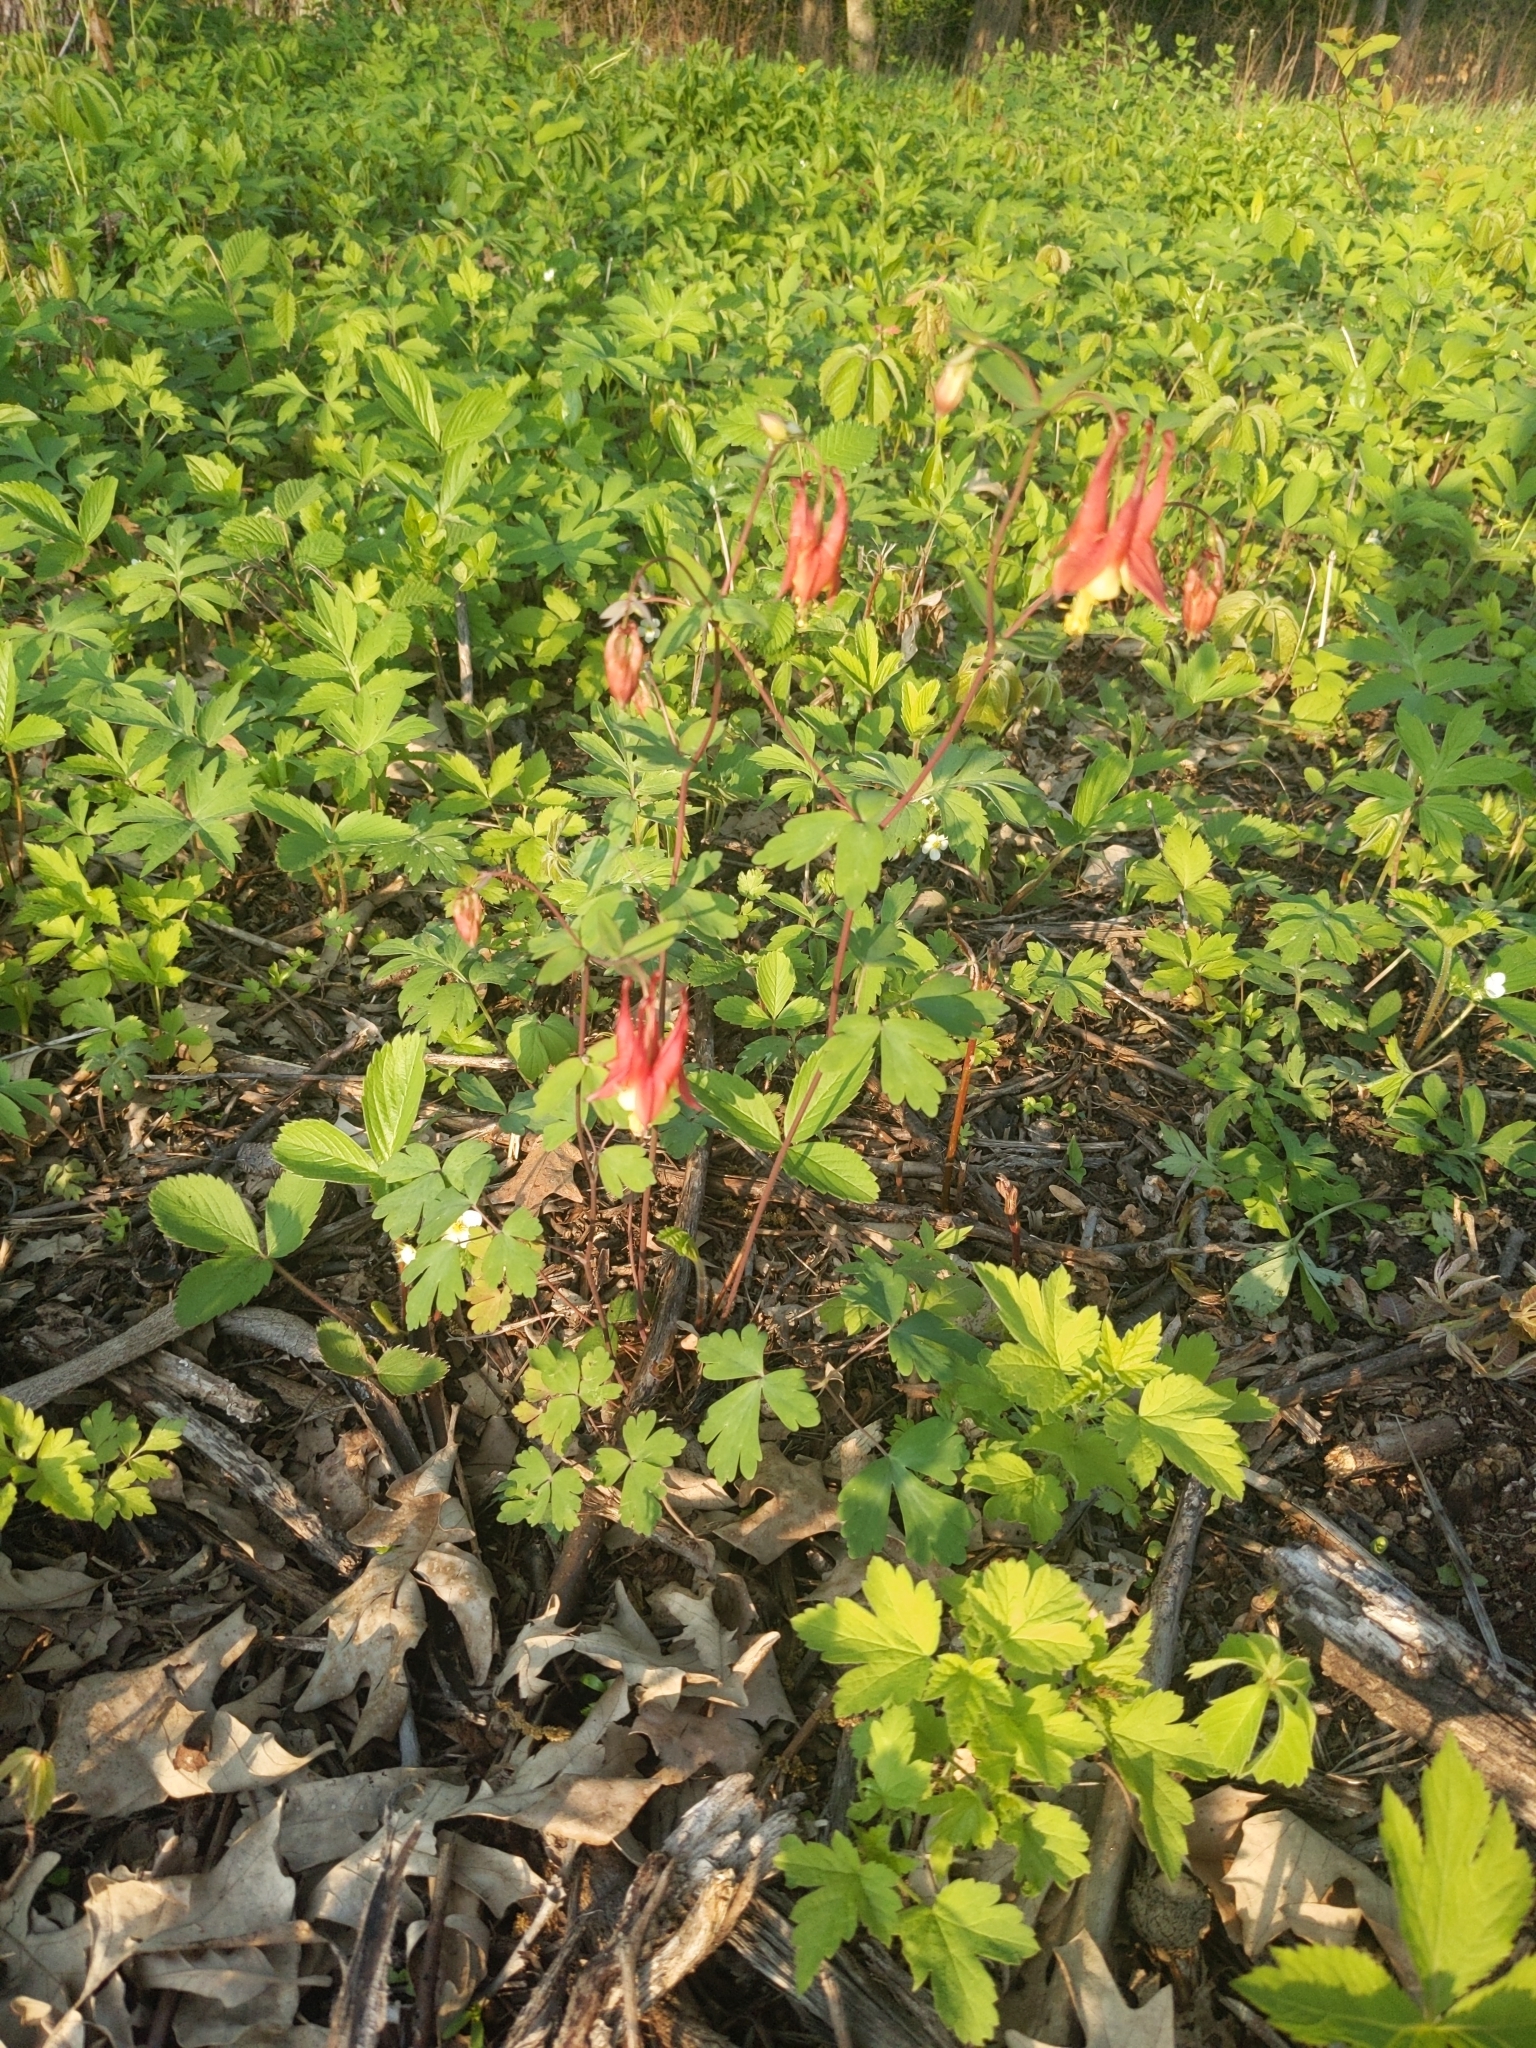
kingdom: Plantae
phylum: Tracheophyta
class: Magnoliopsida
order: Ranunculales
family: Ranunculaceae
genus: Aquilegia
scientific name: Aquilegia canadensis
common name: American columbine
